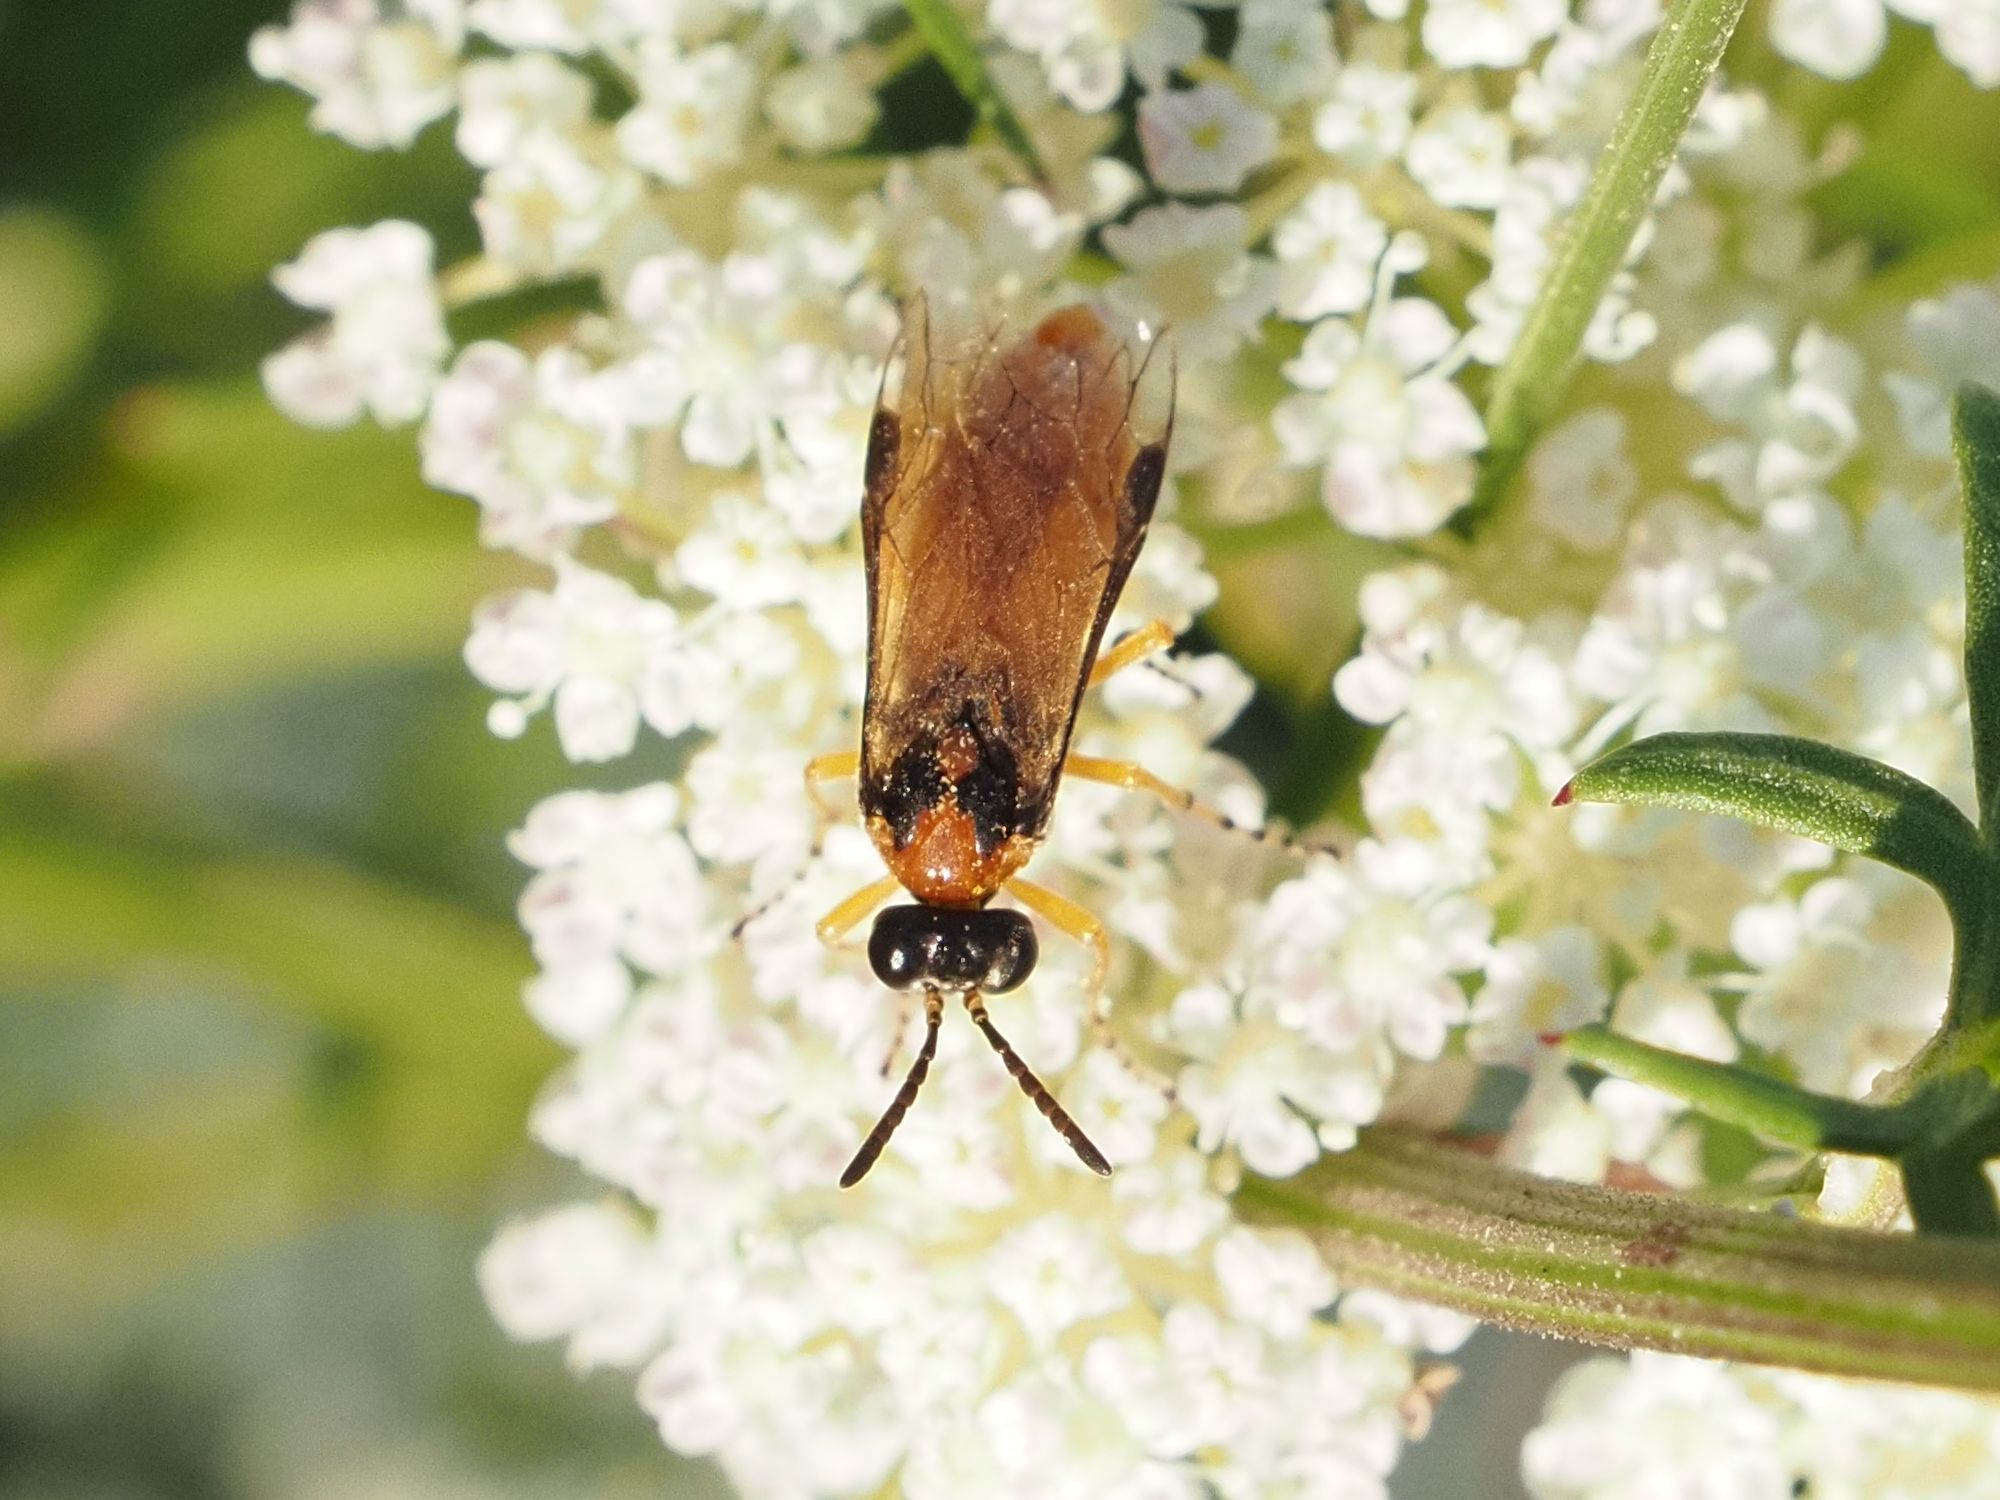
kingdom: Animalia
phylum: Arthropoda
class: Insecta
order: Hymenoptera
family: Tenthredinidae
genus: Athalia
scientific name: Athalia rosae
